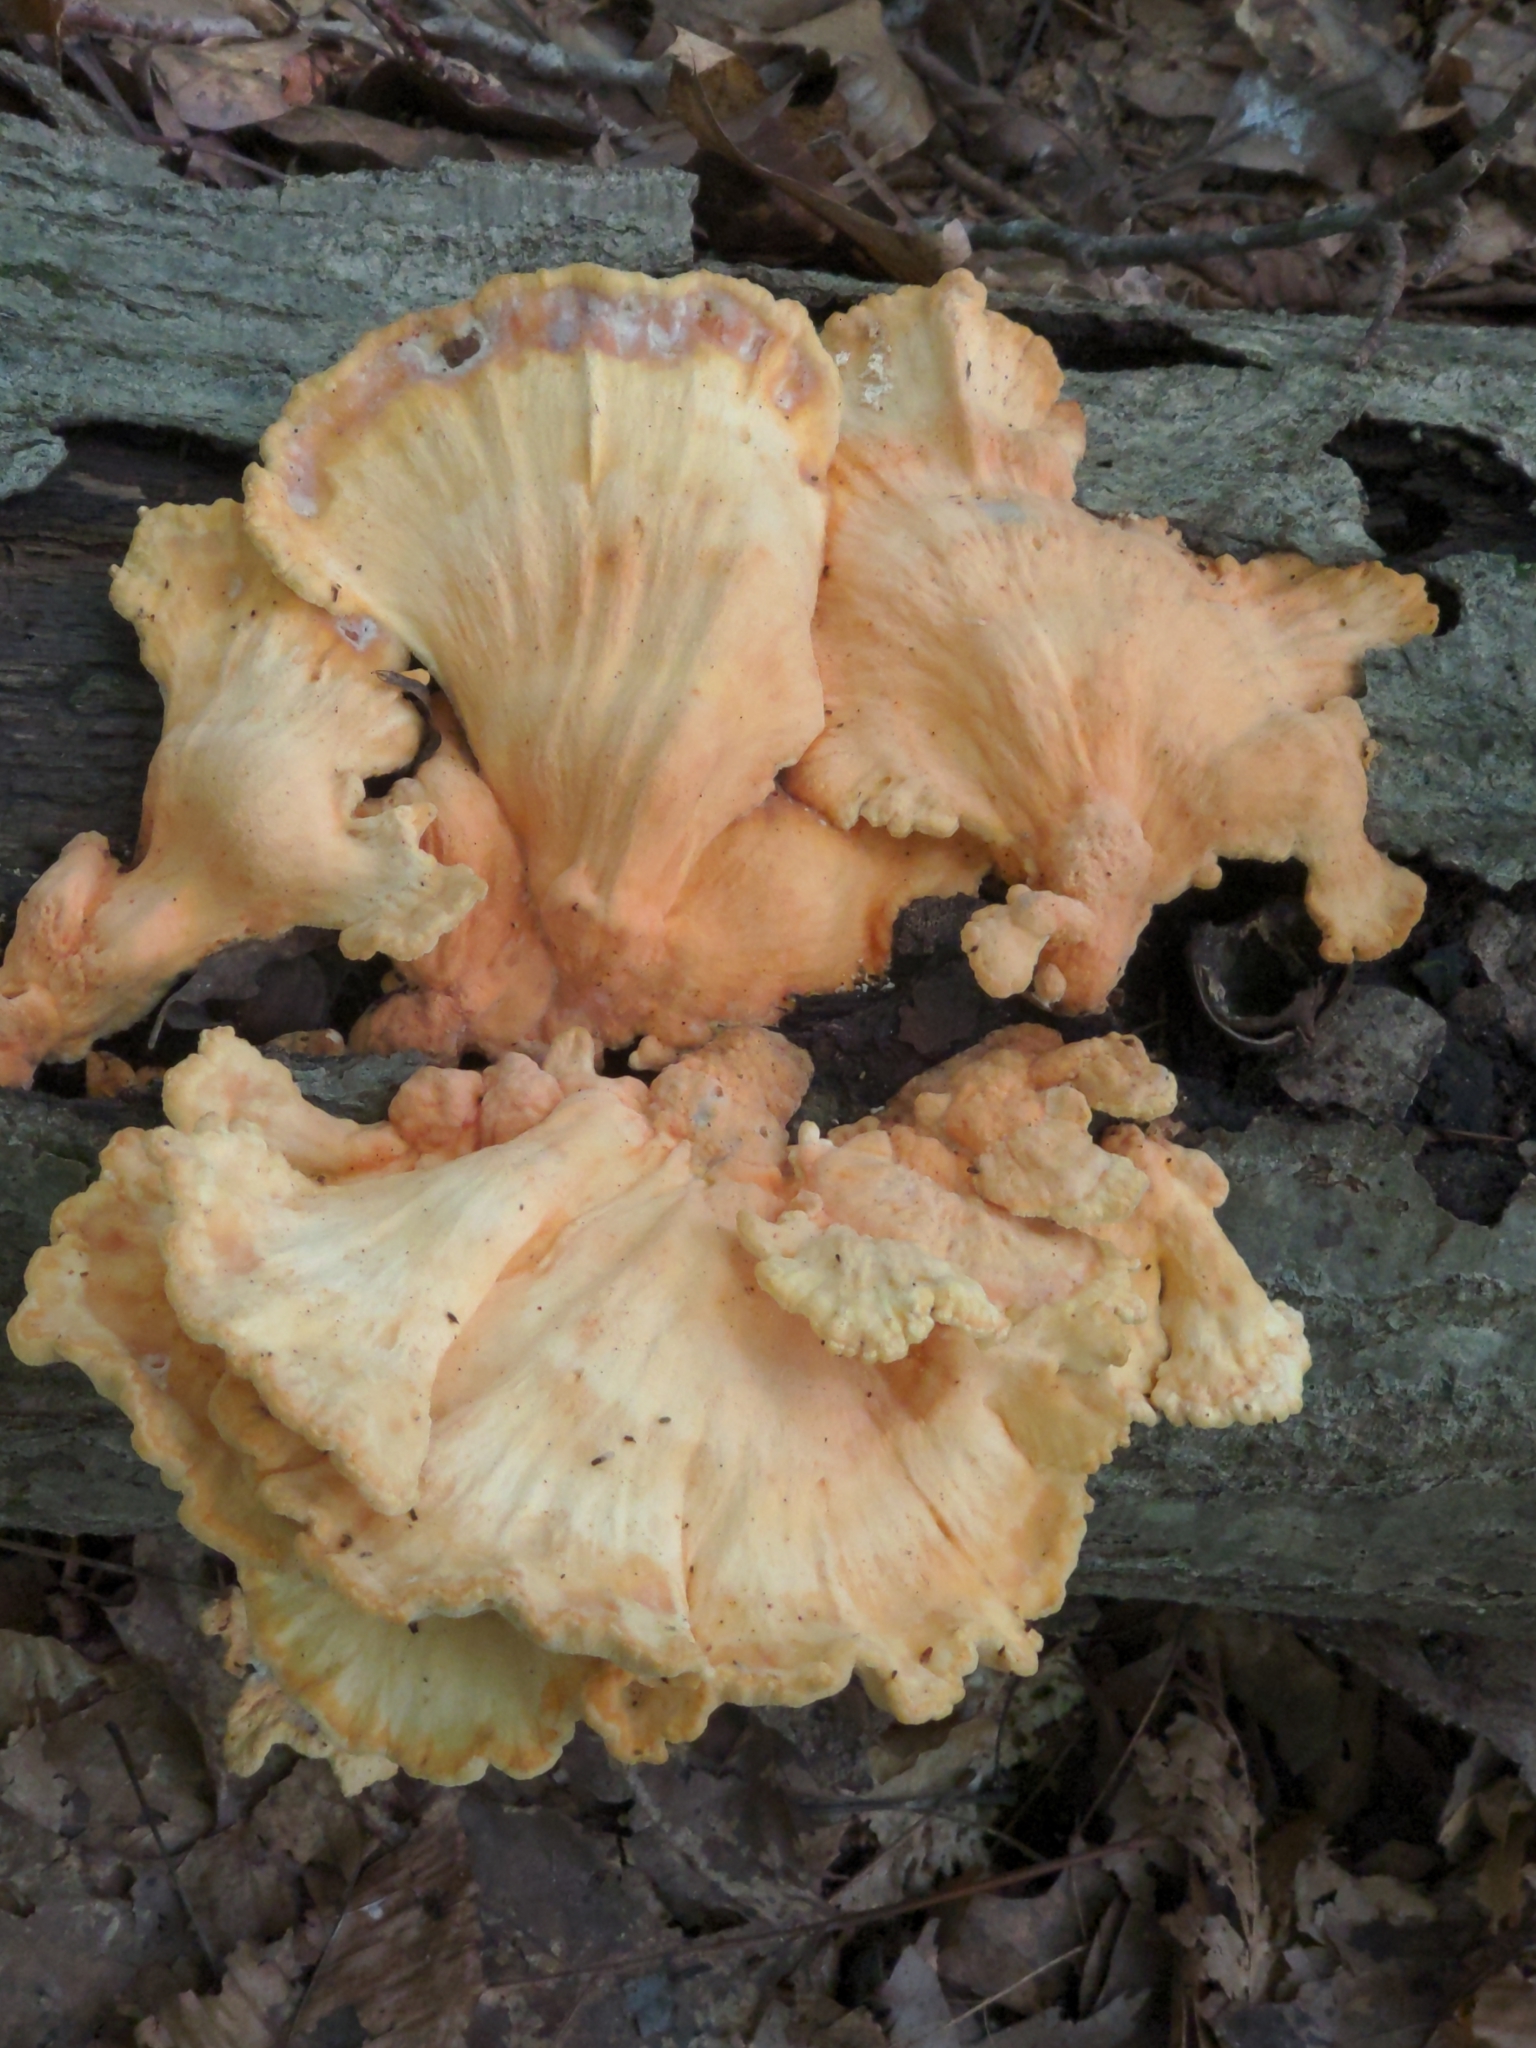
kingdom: Fungi
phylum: Basidiomycota
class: Agaricomycetes
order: Polyporales
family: Laetiporaceae
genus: Laetiporus
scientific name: Laetiporus sulphureus
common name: Chicken of the woods
